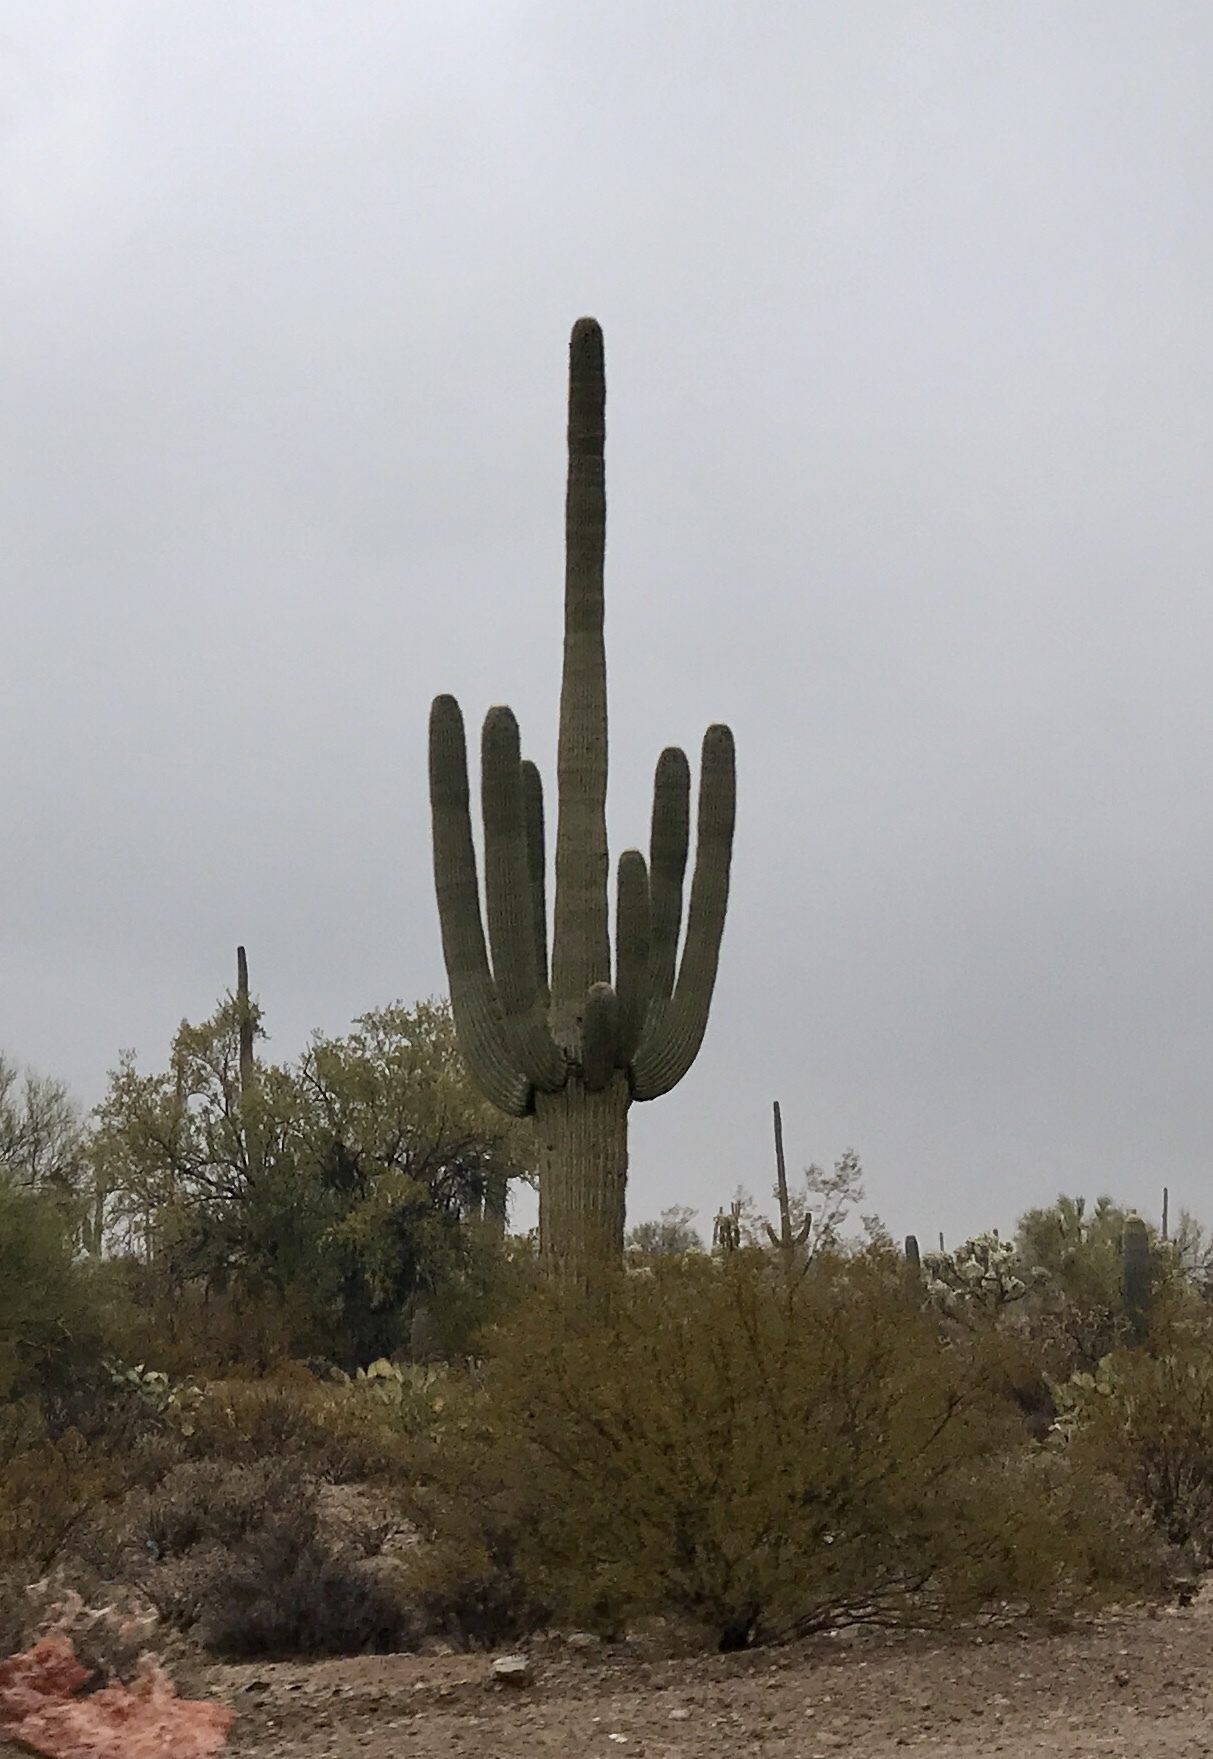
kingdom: Plantae
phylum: Tracheophyta
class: Magnoliopsida
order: Caryophyllales
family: Cactaceae
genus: Carnegiea
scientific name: Carnegiea gigantea
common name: Saguaro
